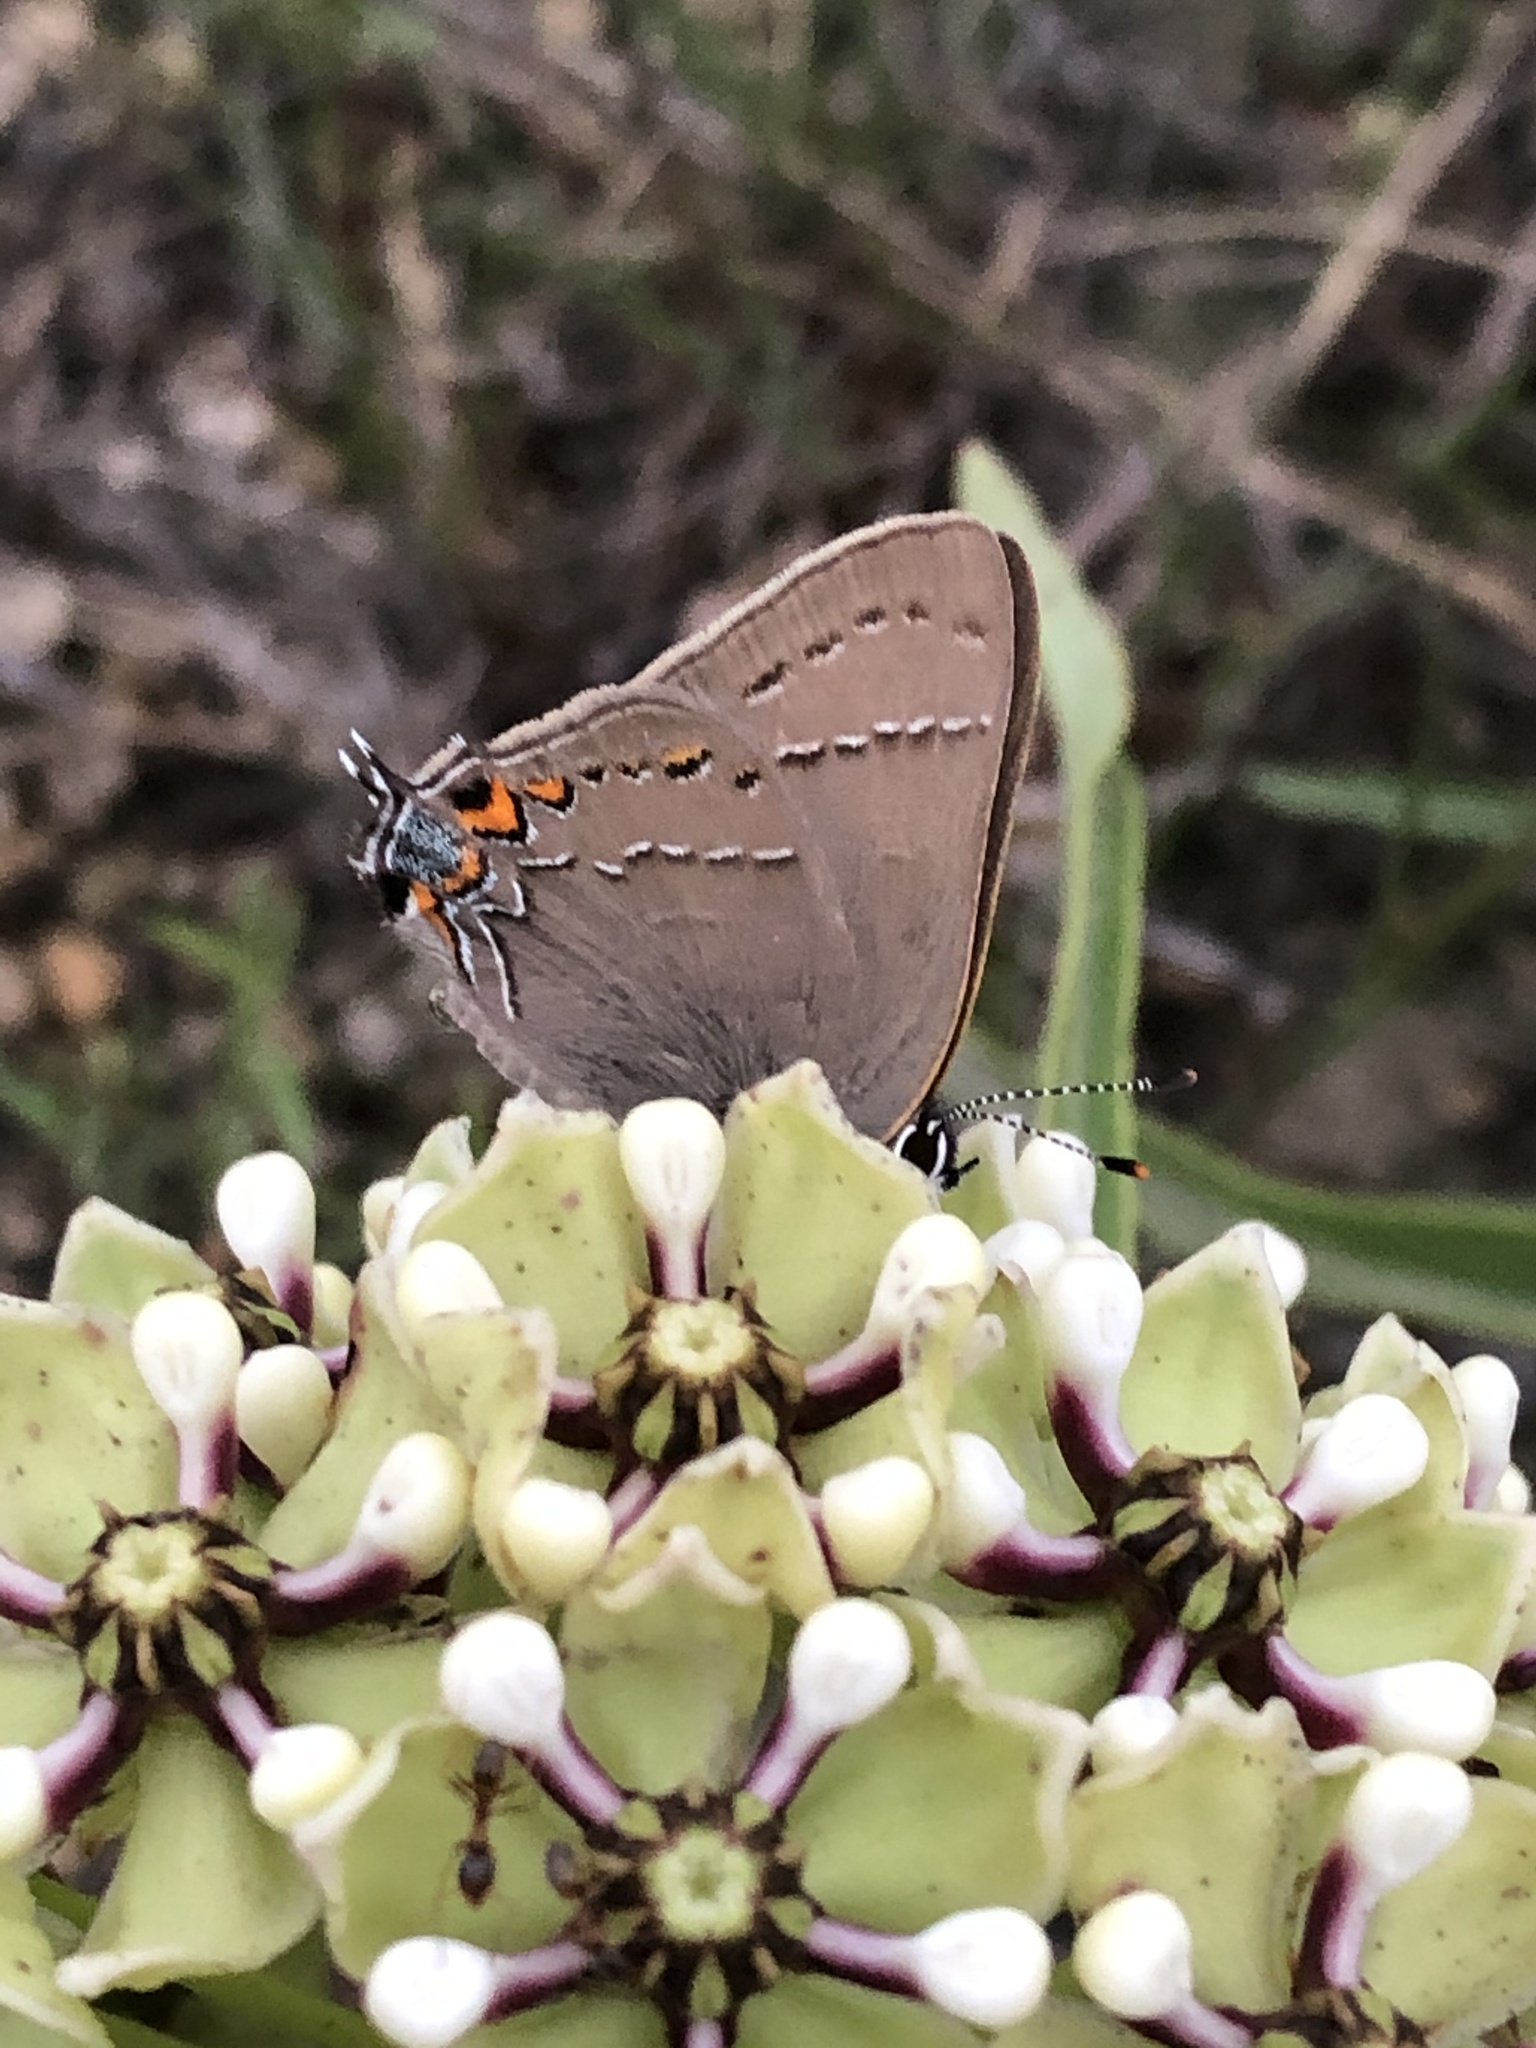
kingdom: Animalia
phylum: Arthropoda
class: Insecta
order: Lepidoptera
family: Lycaenidae
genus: Fixsenia
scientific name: Fixsenia favonius
